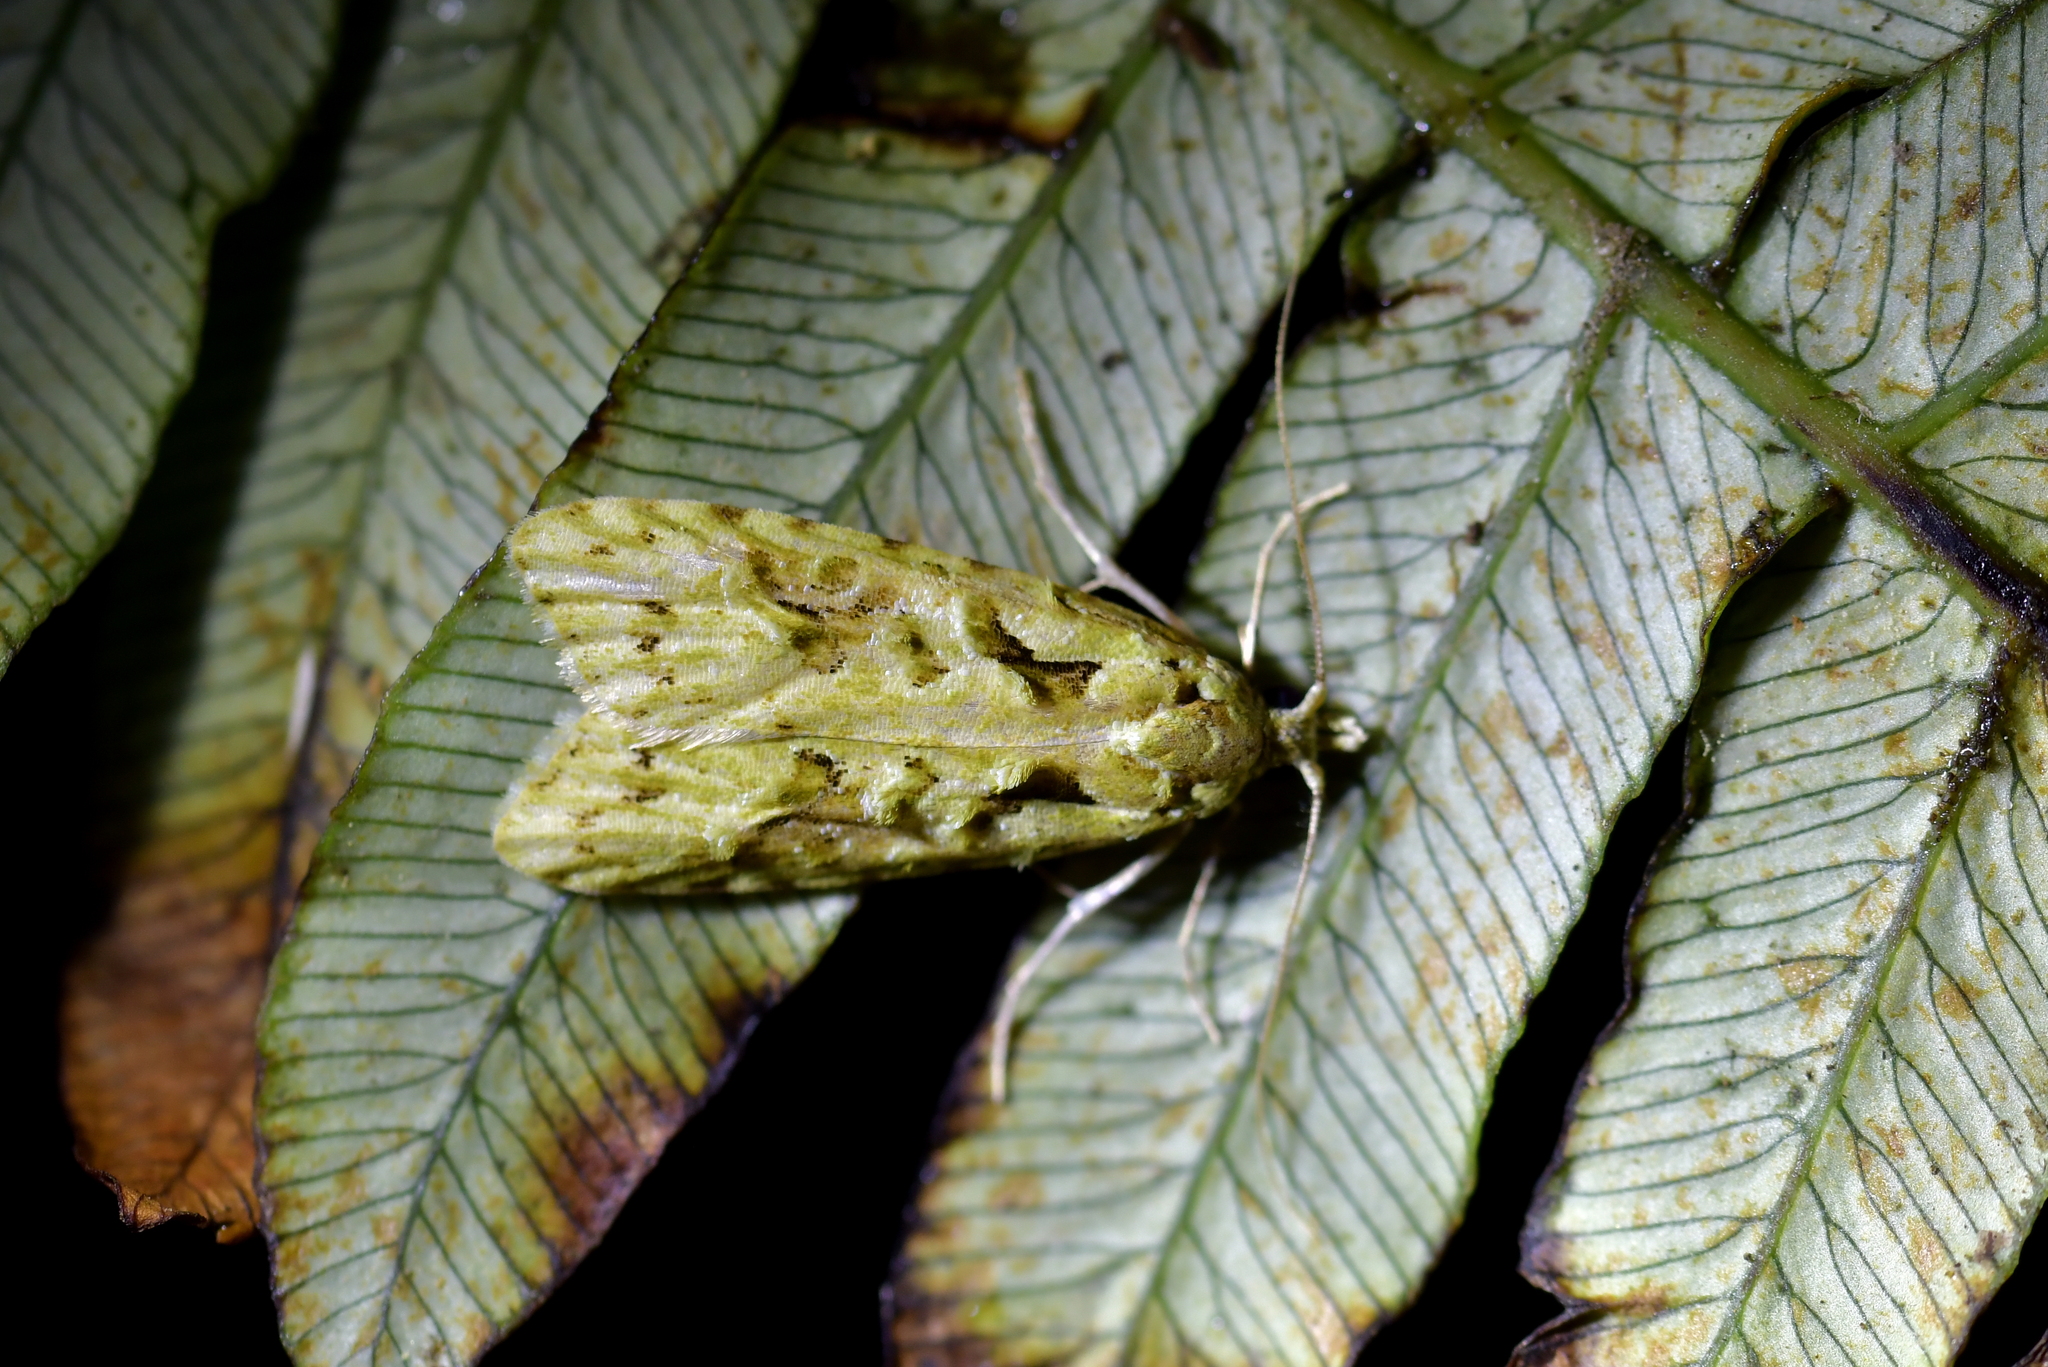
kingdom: Animalia
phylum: Arthropoda
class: Insecta
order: Lepidoptera
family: Carposinidae
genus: Carposina
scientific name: Carposina Heterocrossa eriphylla
